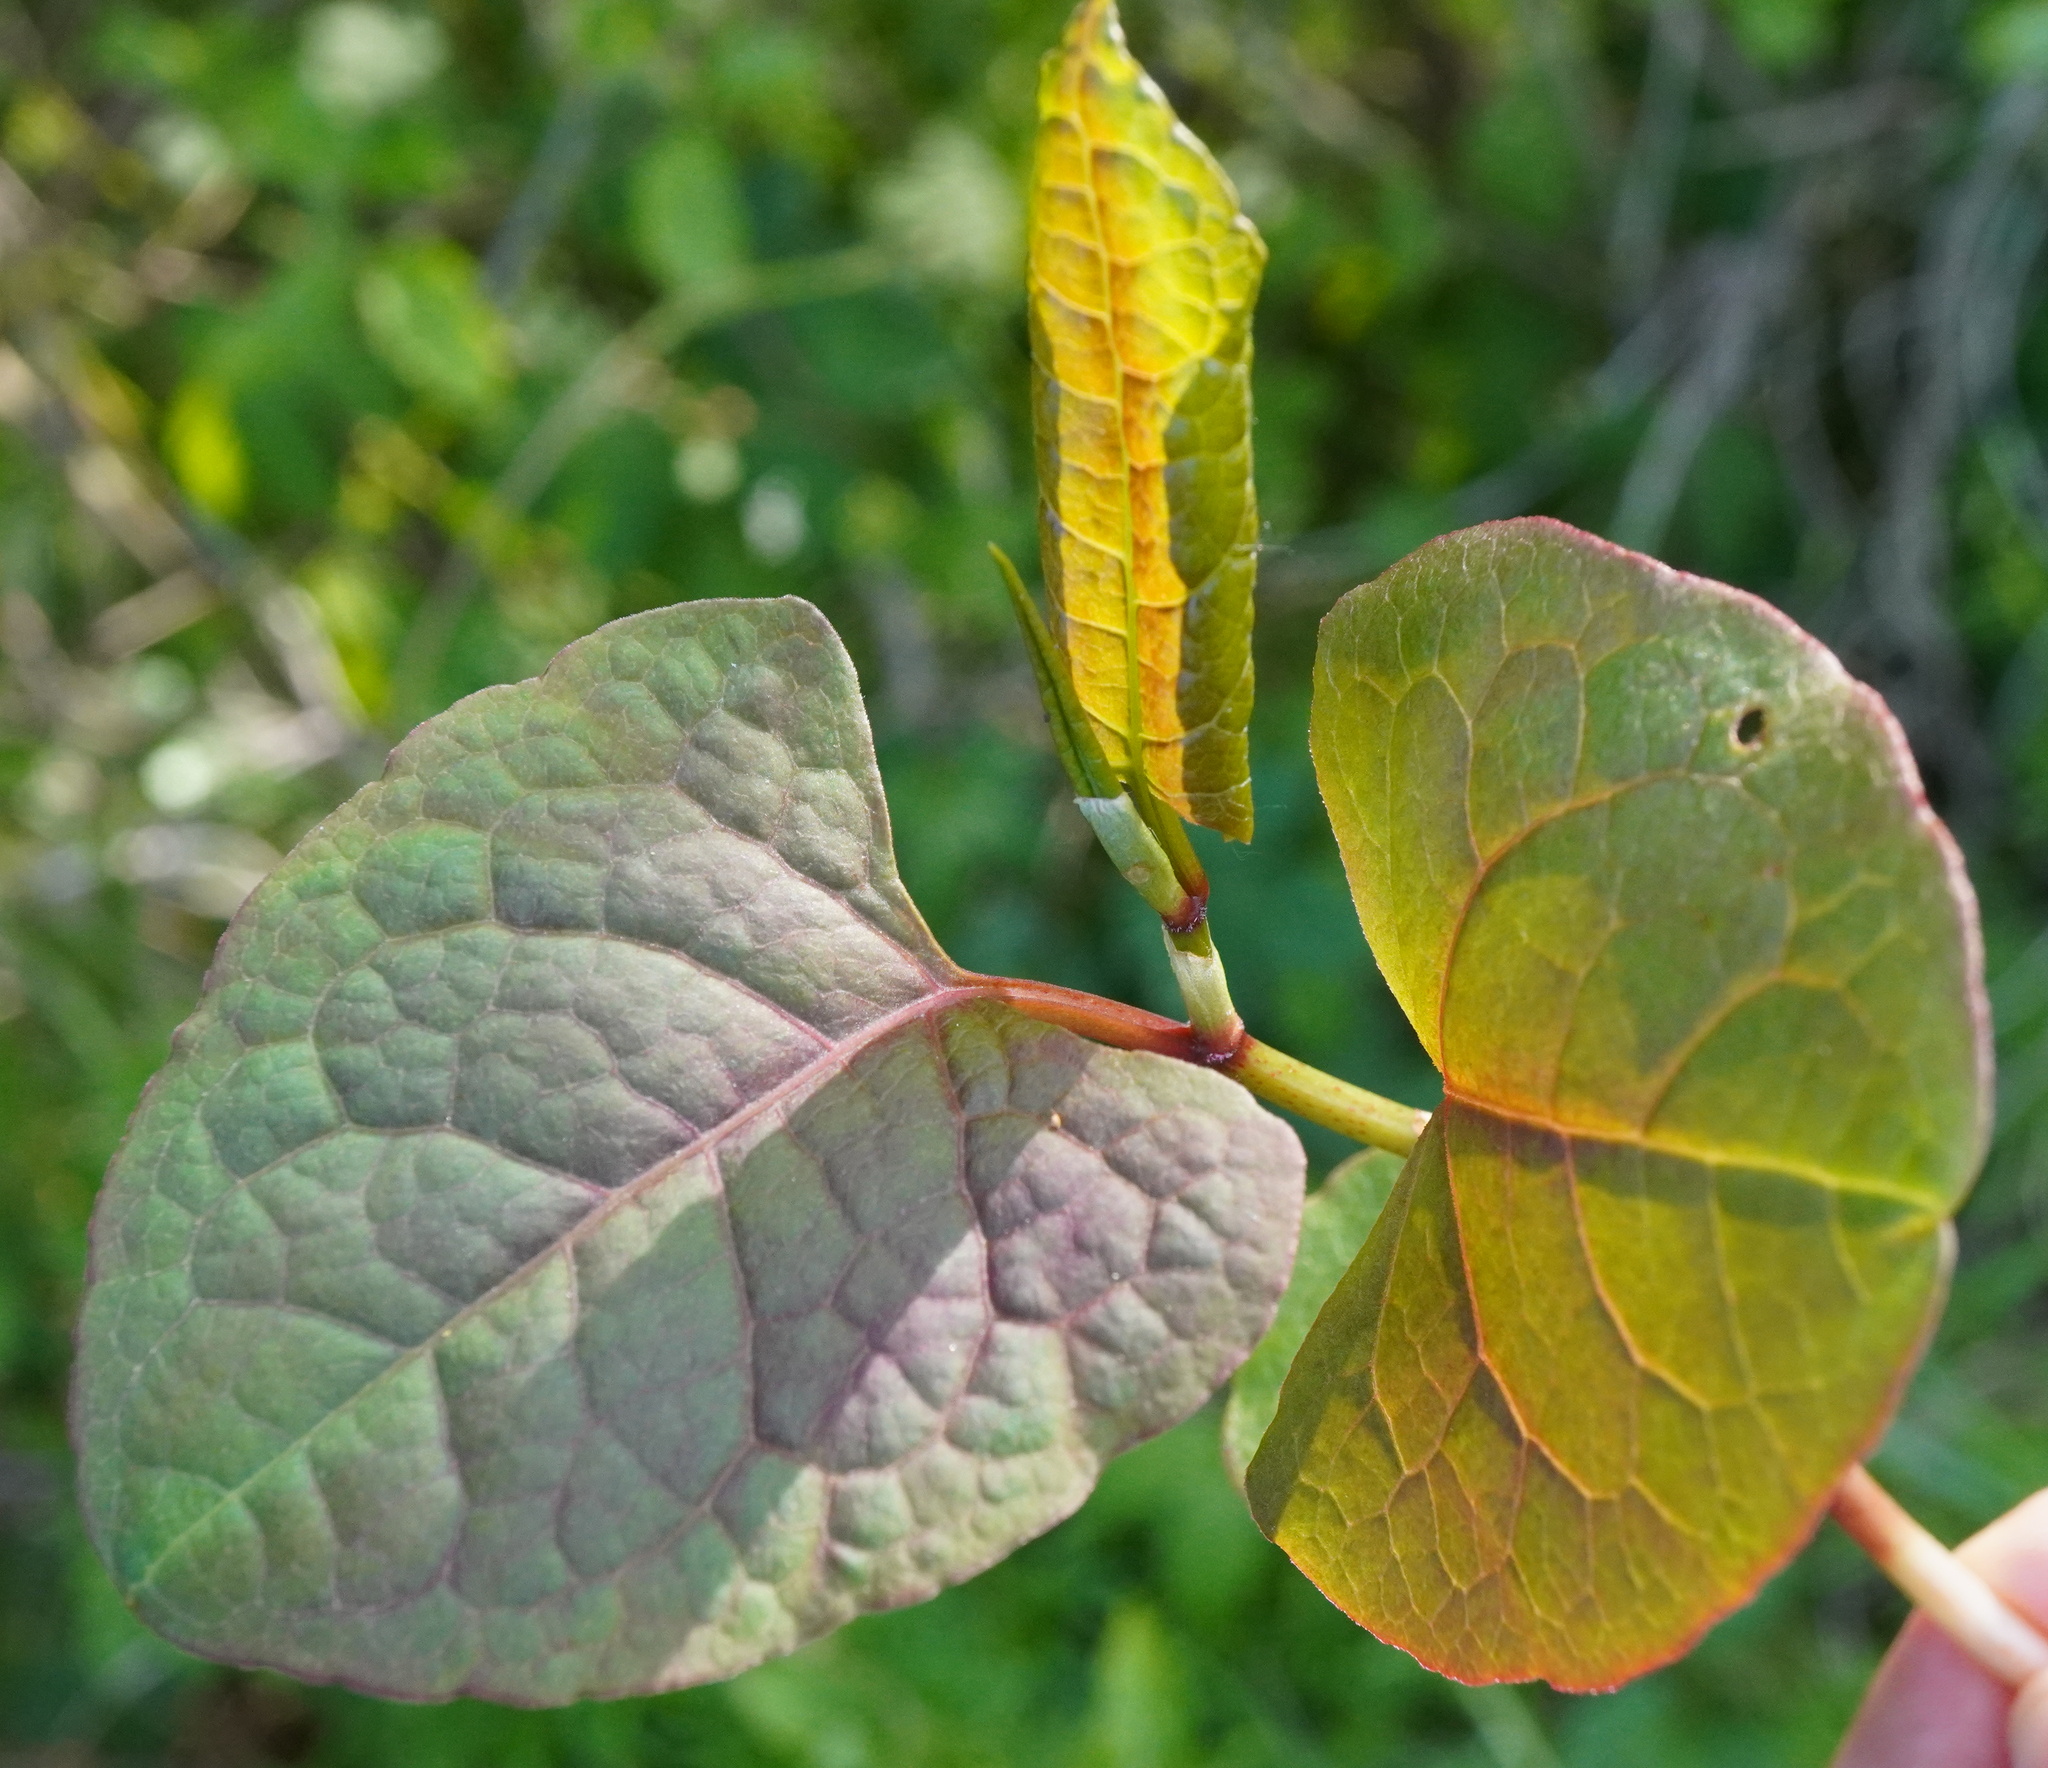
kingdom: Plantae
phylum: Tracheophyta
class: Magnoliopsida
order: Caryophyllales
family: Polygonaceae
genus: Reynoutria
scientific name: Reynoutria bohemica
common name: Bohemian knotweed
